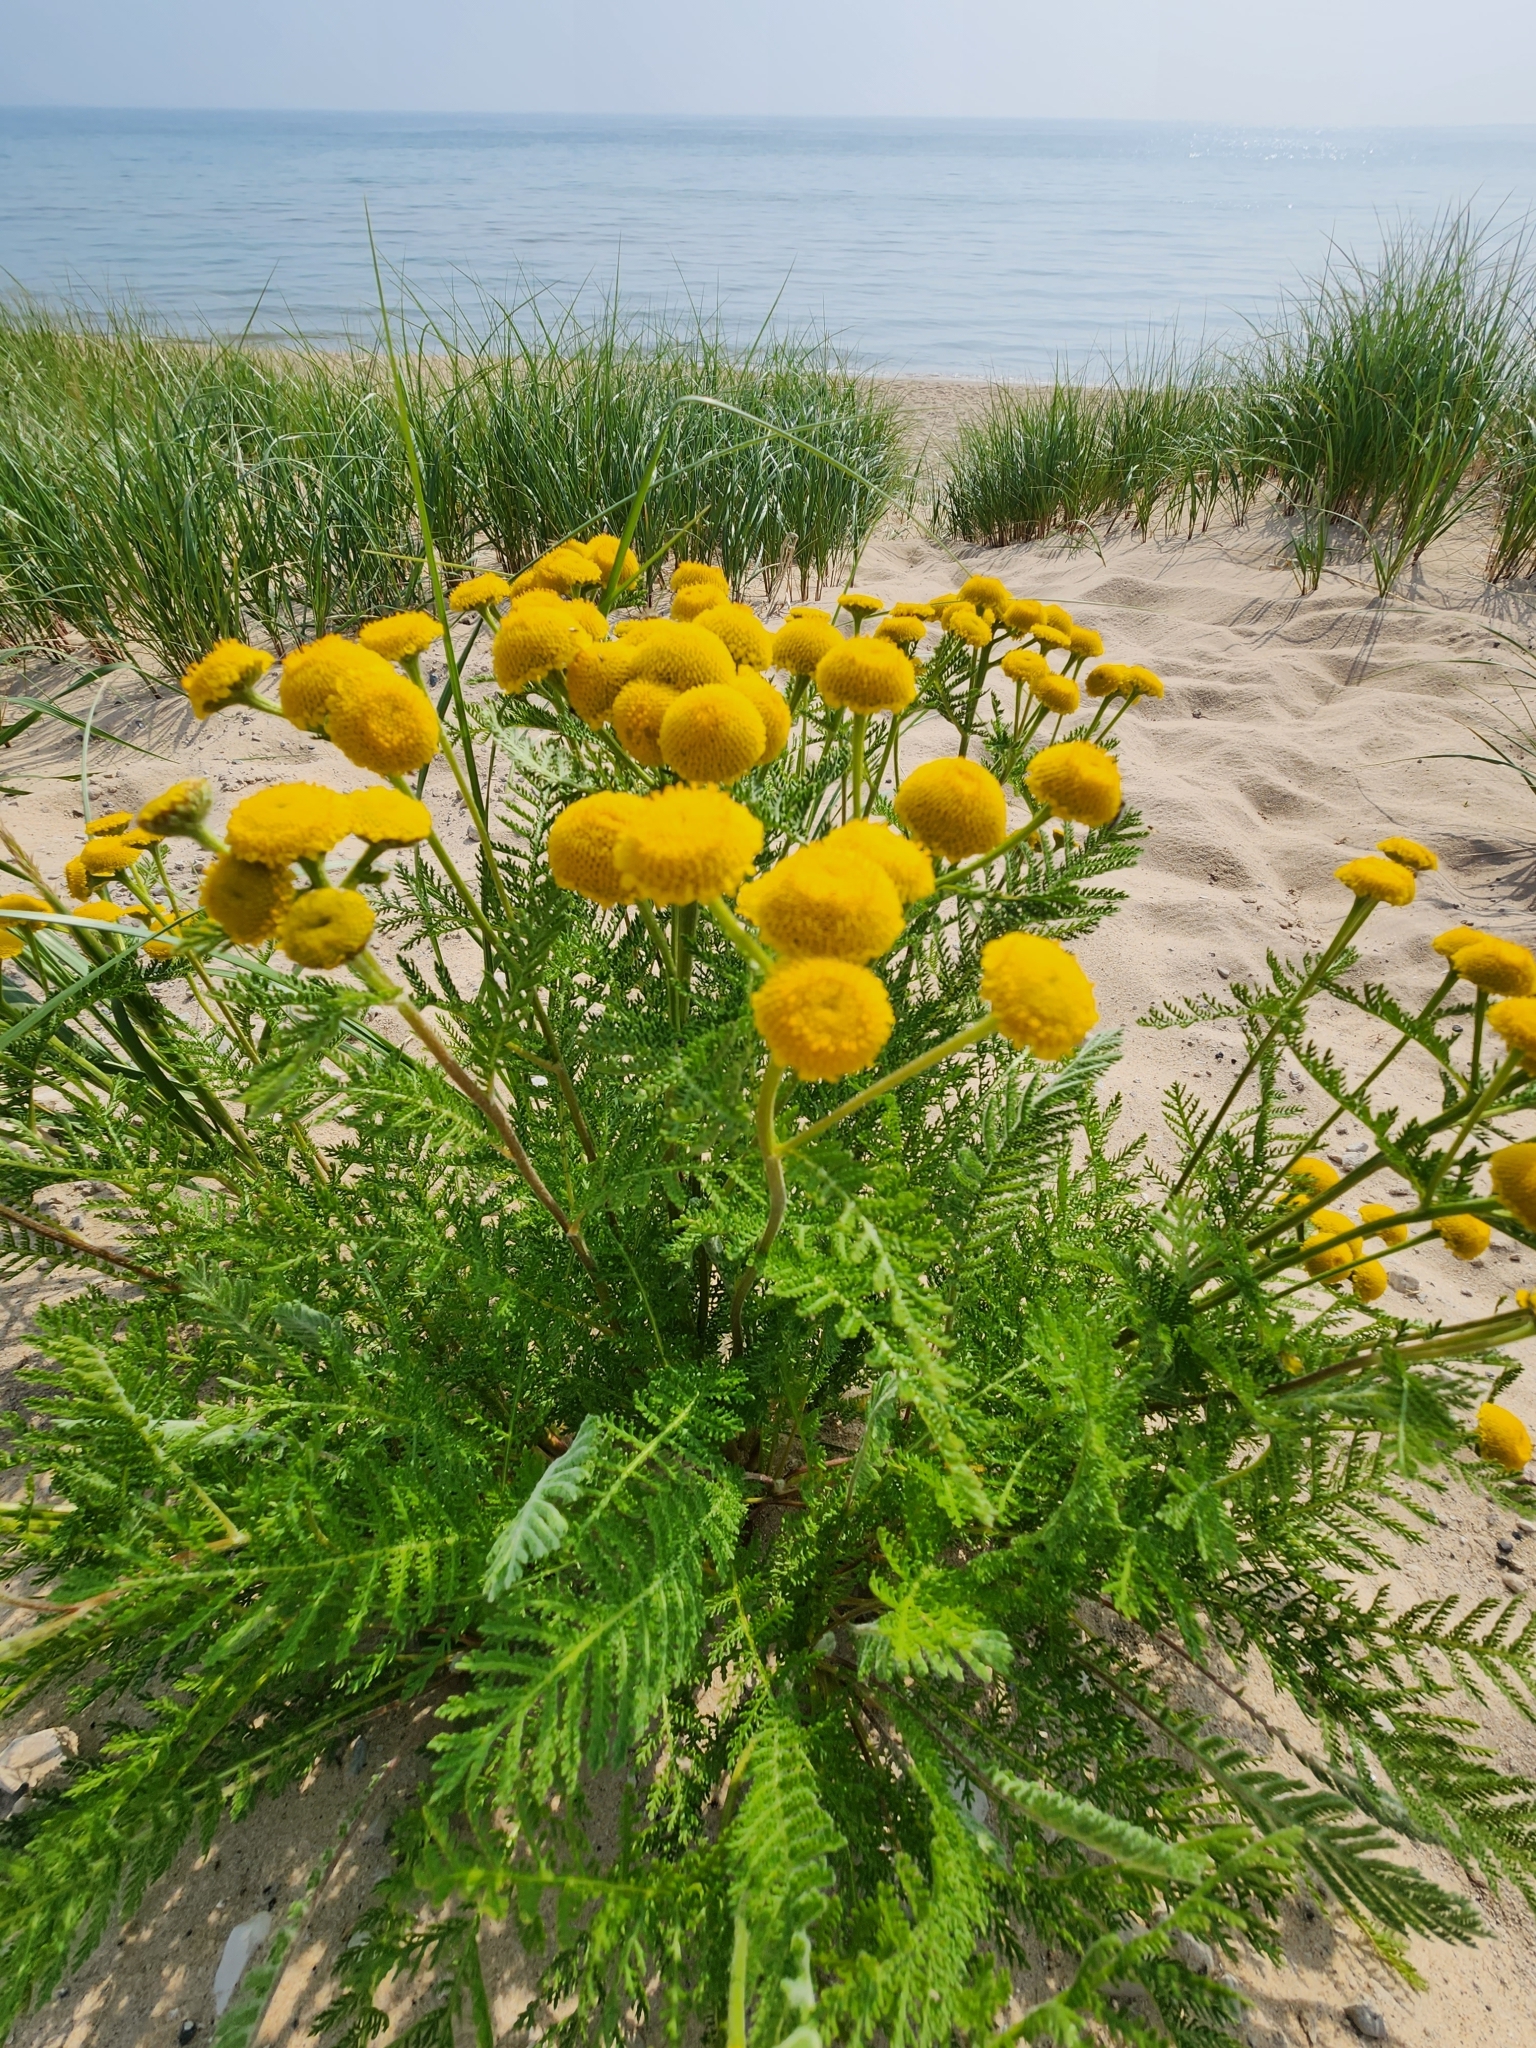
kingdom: Plantae
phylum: Tracheophyta
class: Magnoliopsida
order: Asterales
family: Asteraceae
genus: Tanacetum
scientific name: Tanacetum bipinnatum
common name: Dwarf tansy
